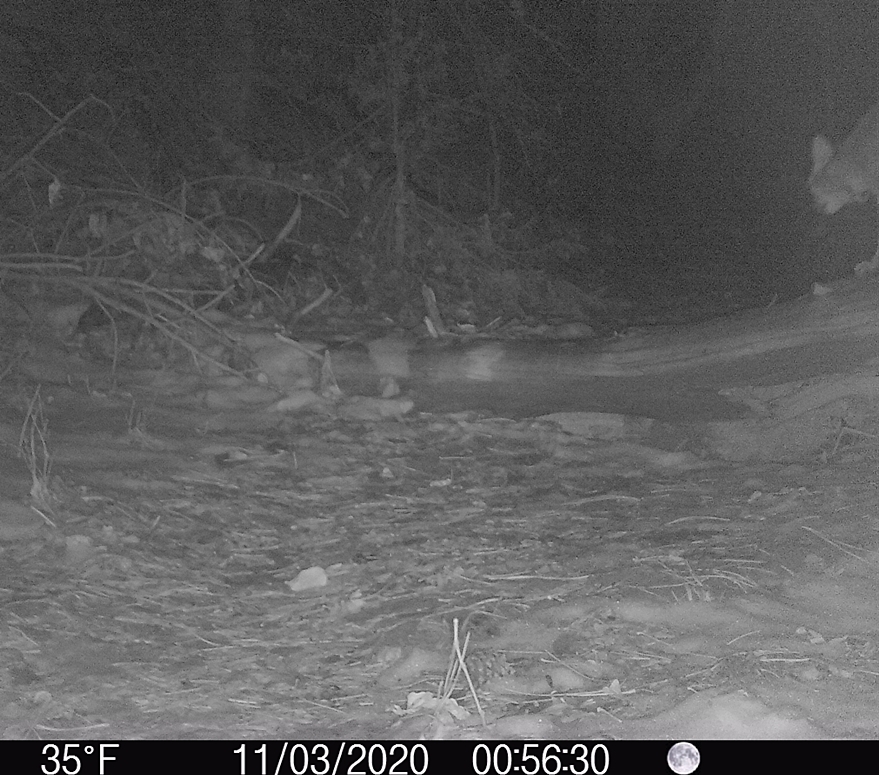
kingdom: Animalia
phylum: Chordata
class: Mammalia
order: Carnivora
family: Felidae
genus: Lynx
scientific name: Lynx rufus
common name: Bobcat
